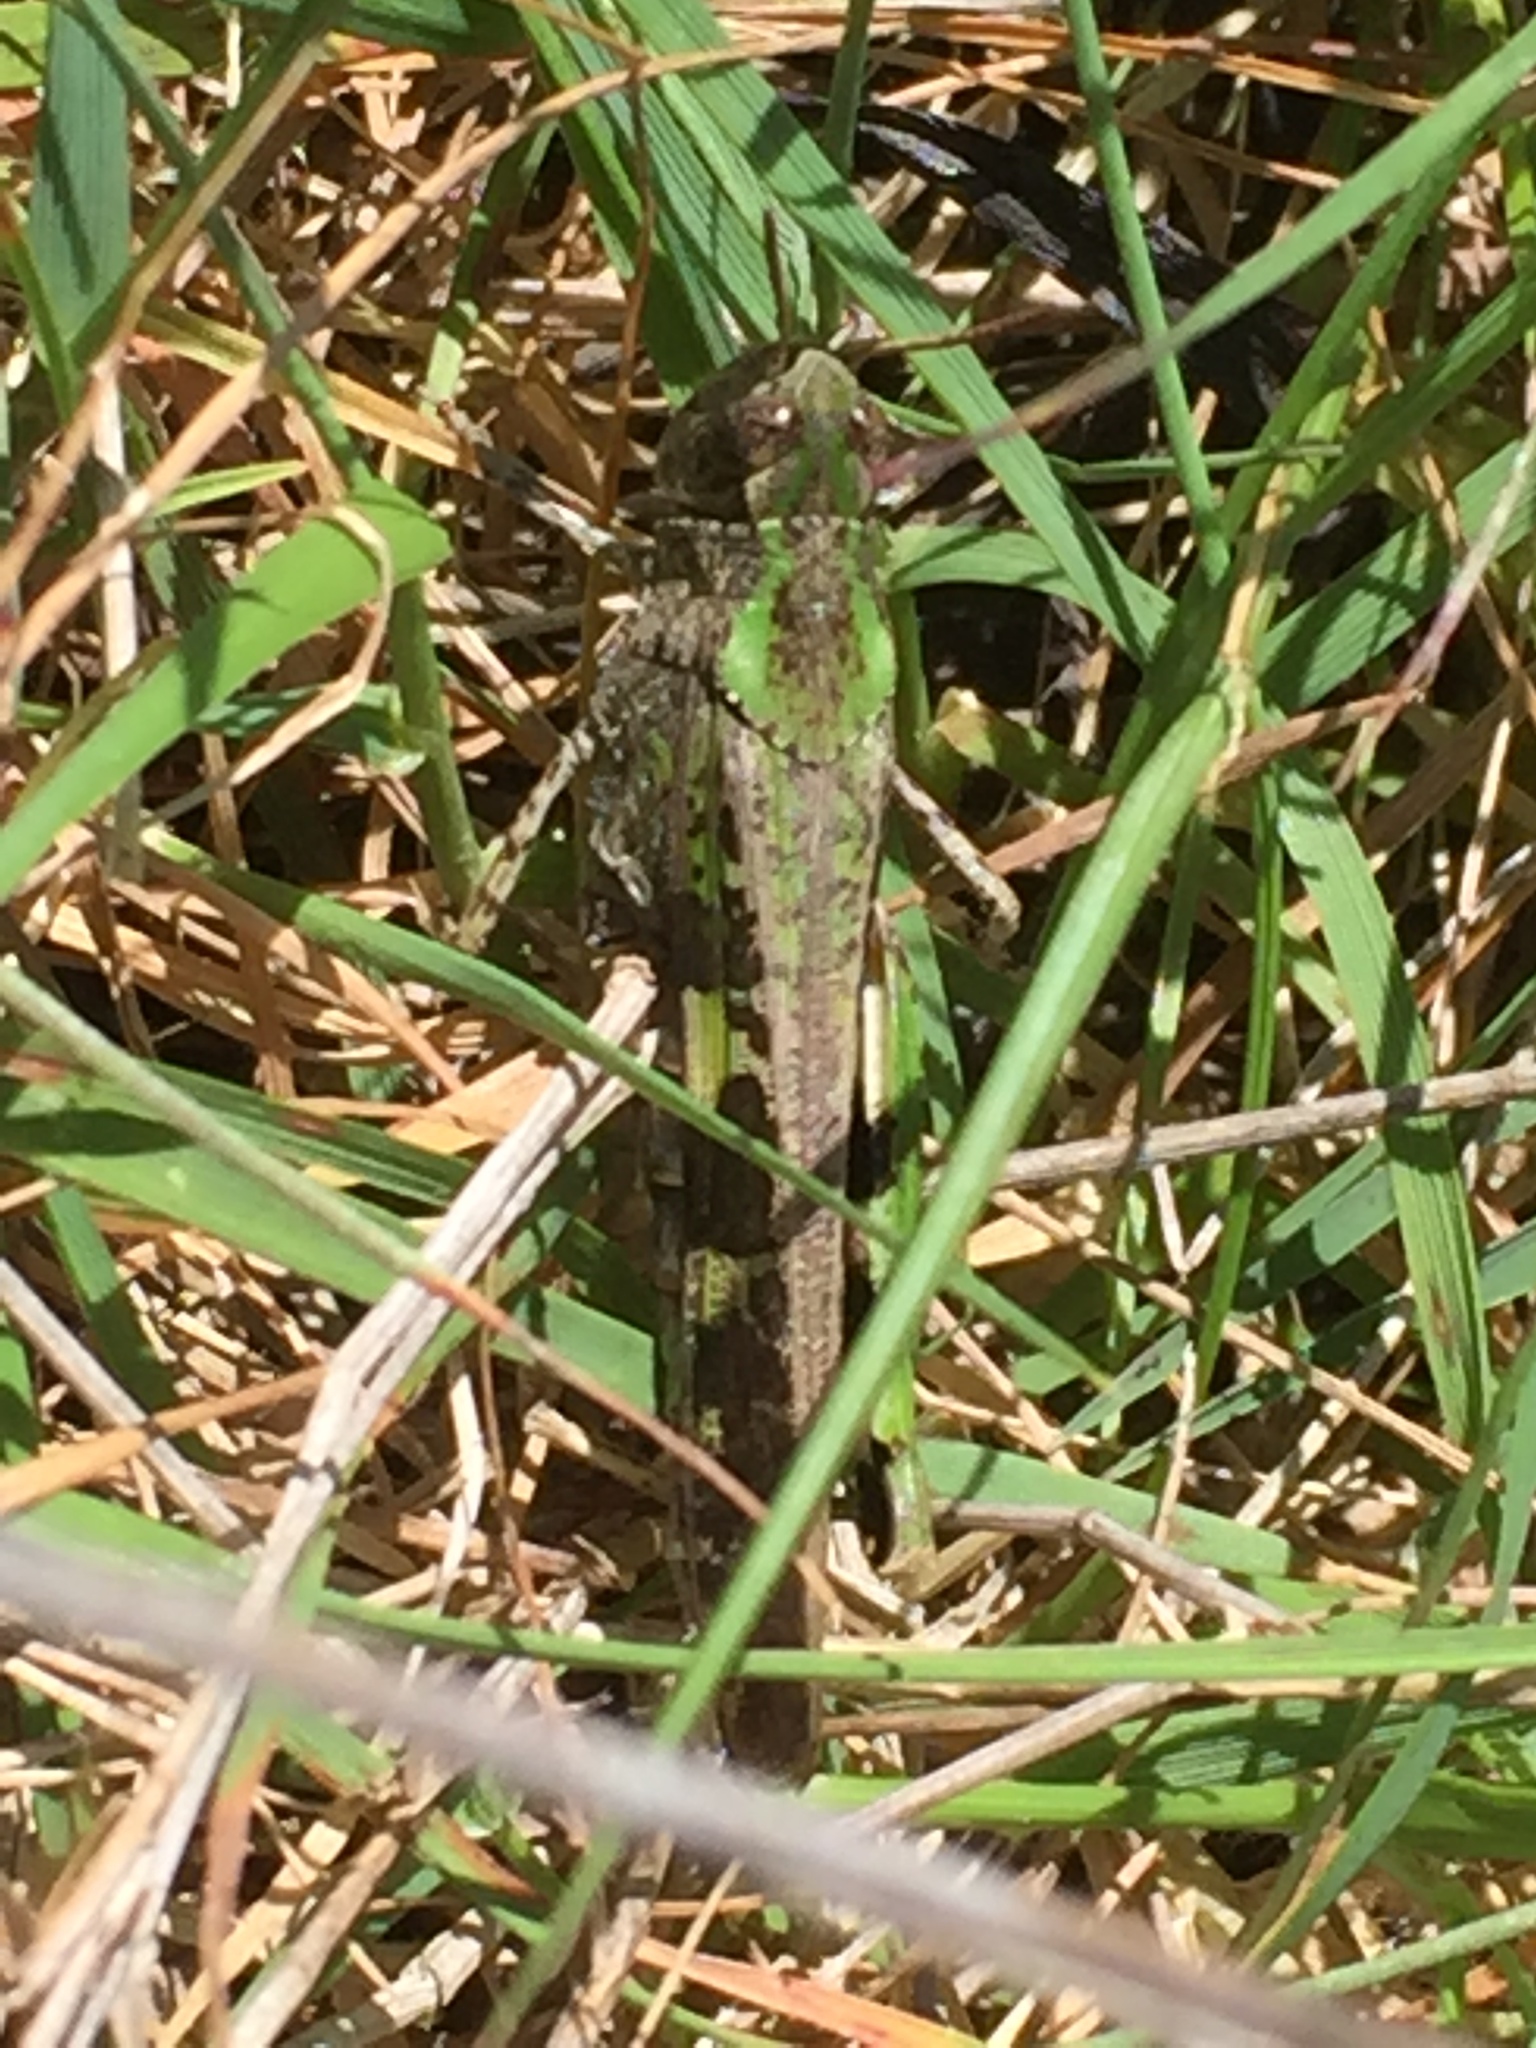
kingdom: Animalia
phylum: Arthropoda
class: Insecta
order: Orthoptera
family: Acrididae
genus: Aiolopus
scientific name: Aiolopus strepens
